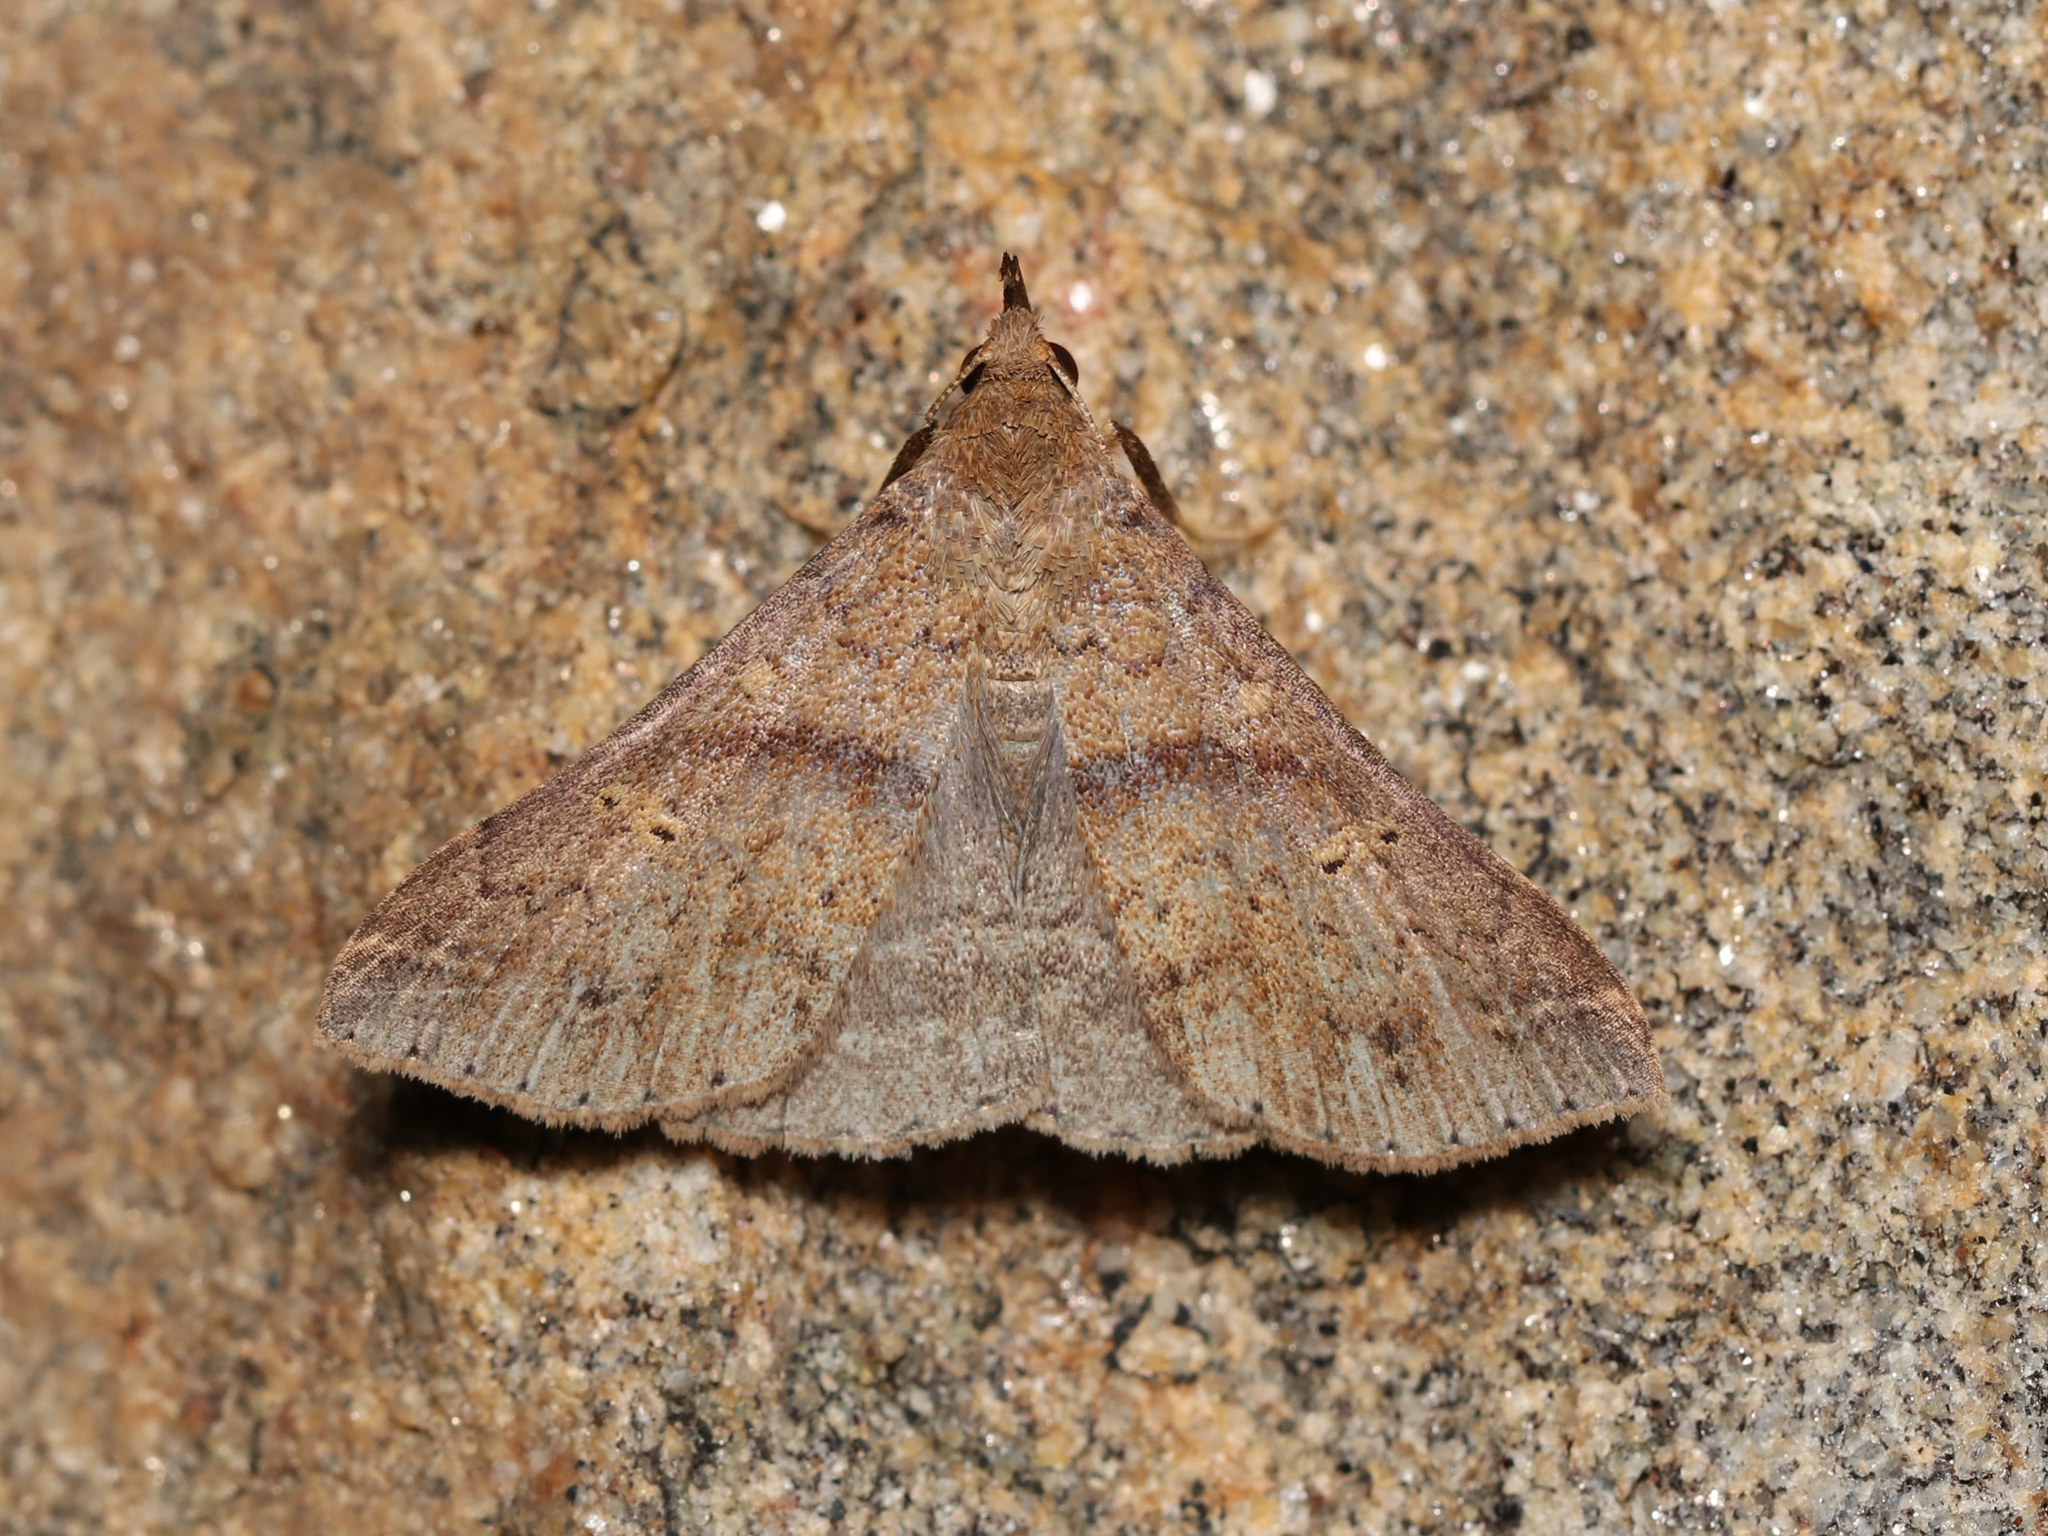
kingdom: Animalia
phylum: Arthropoda
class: Insecta
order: Lepidoptera
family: Erebidae
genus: Renia
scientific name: Renia discoloralis
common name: Discolored renia moth
